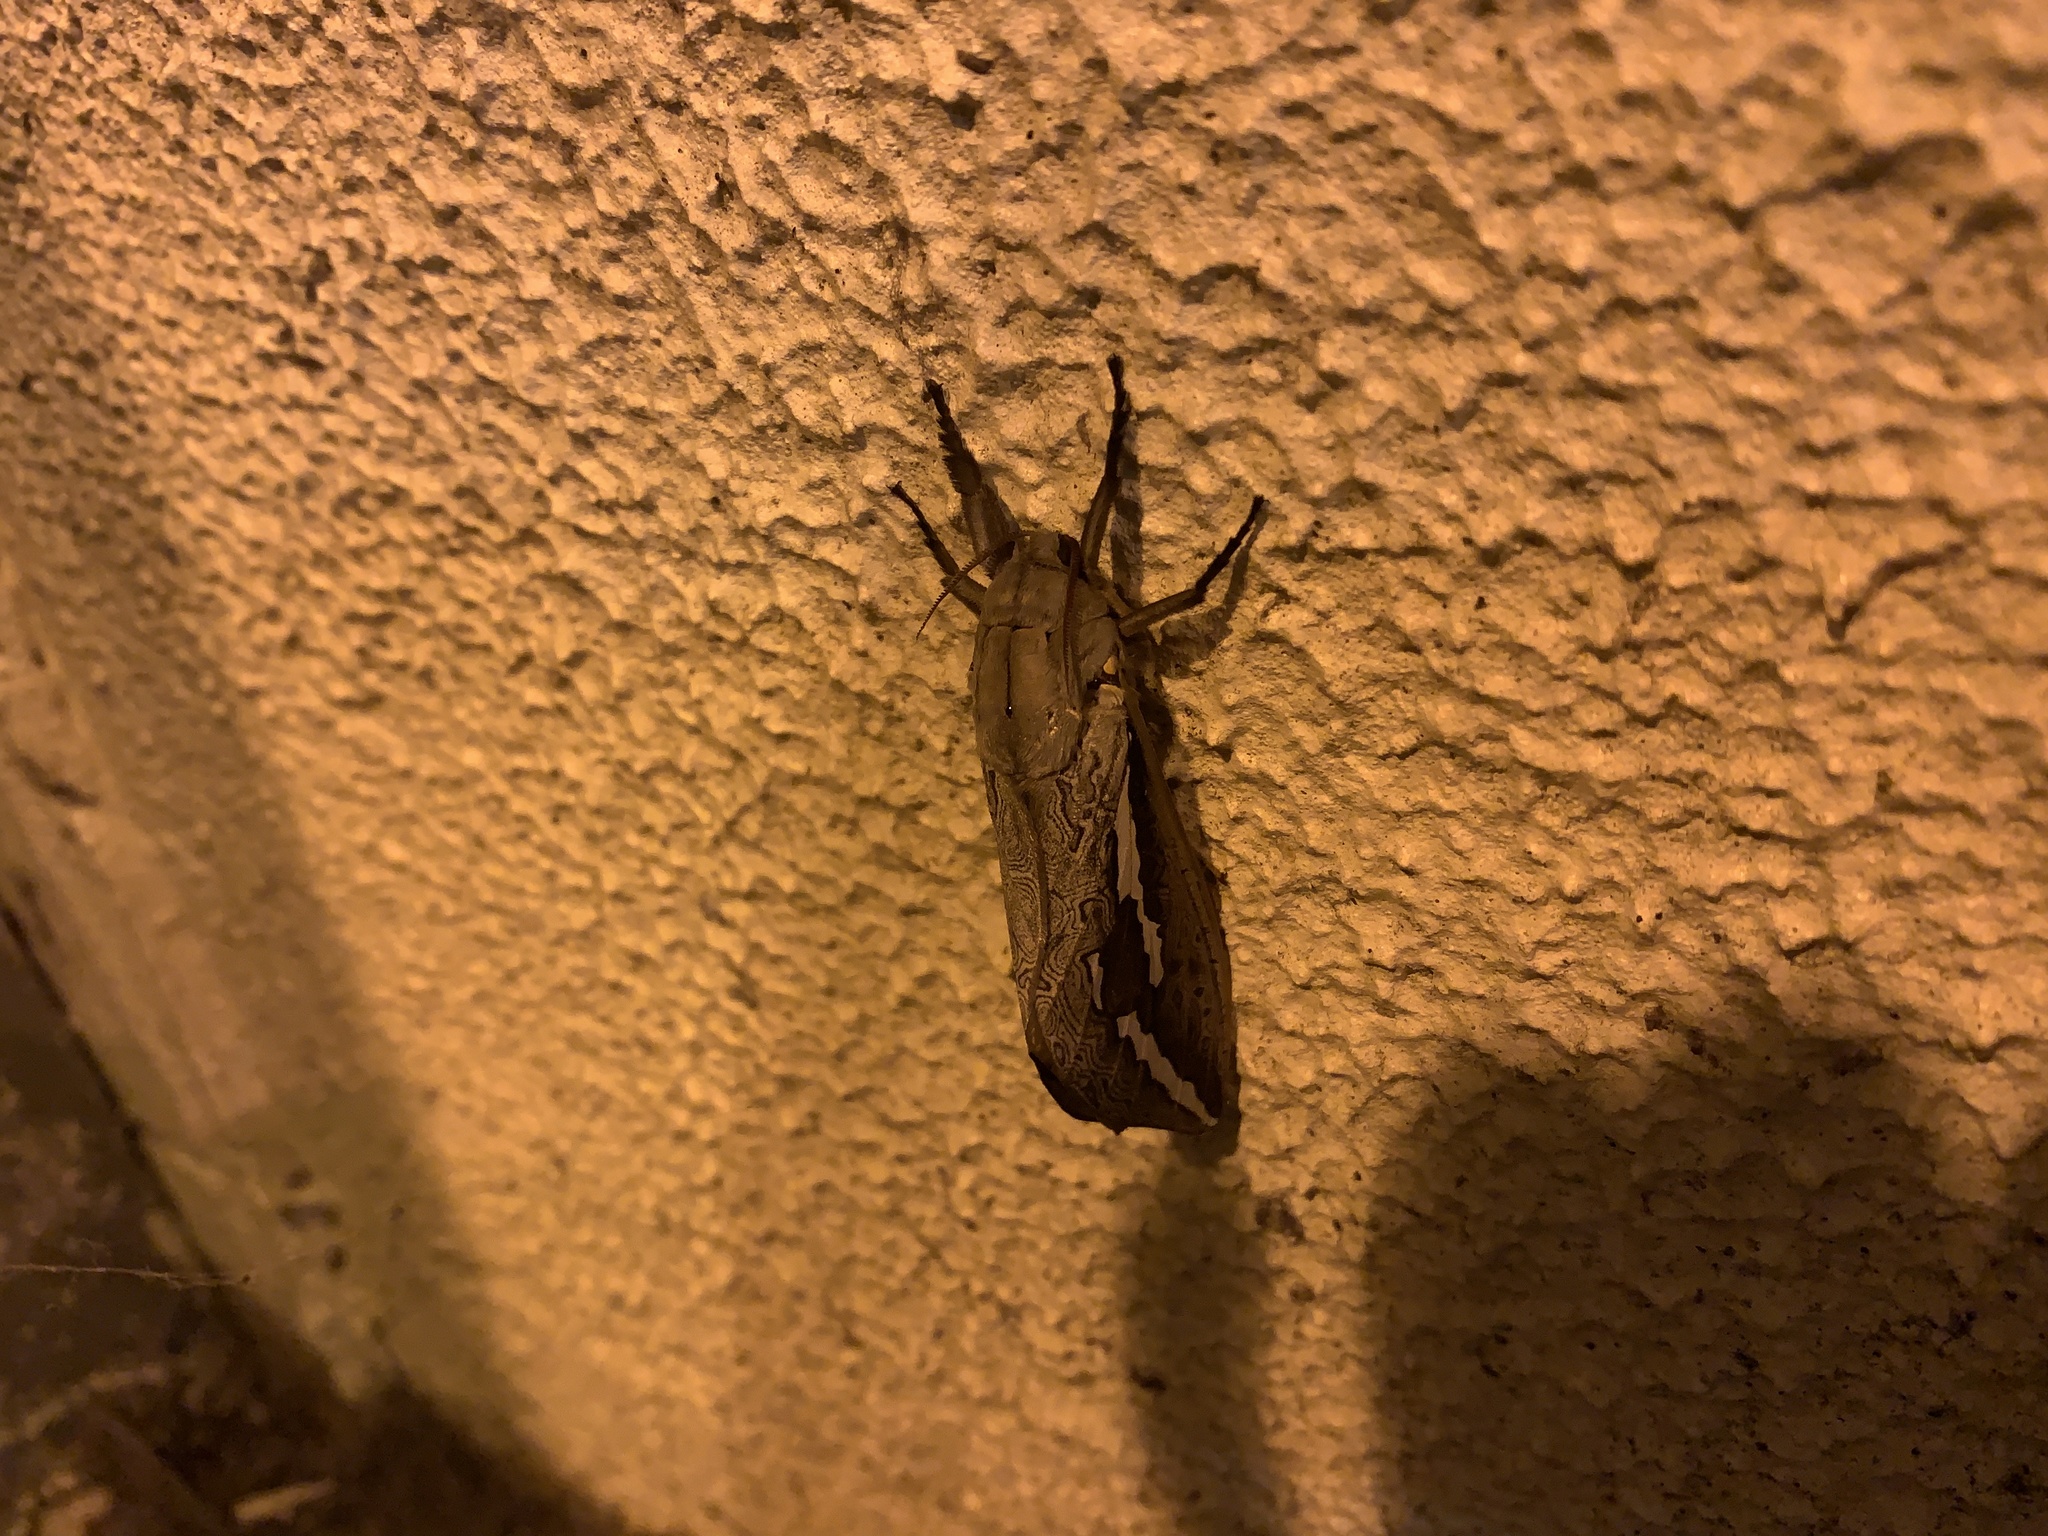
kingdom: Animalia
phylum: Arthropoda
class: Insecta
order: Lepidoptera
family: Hepialidae
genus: Abantiades
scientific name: Abantiades labyrinthicus
